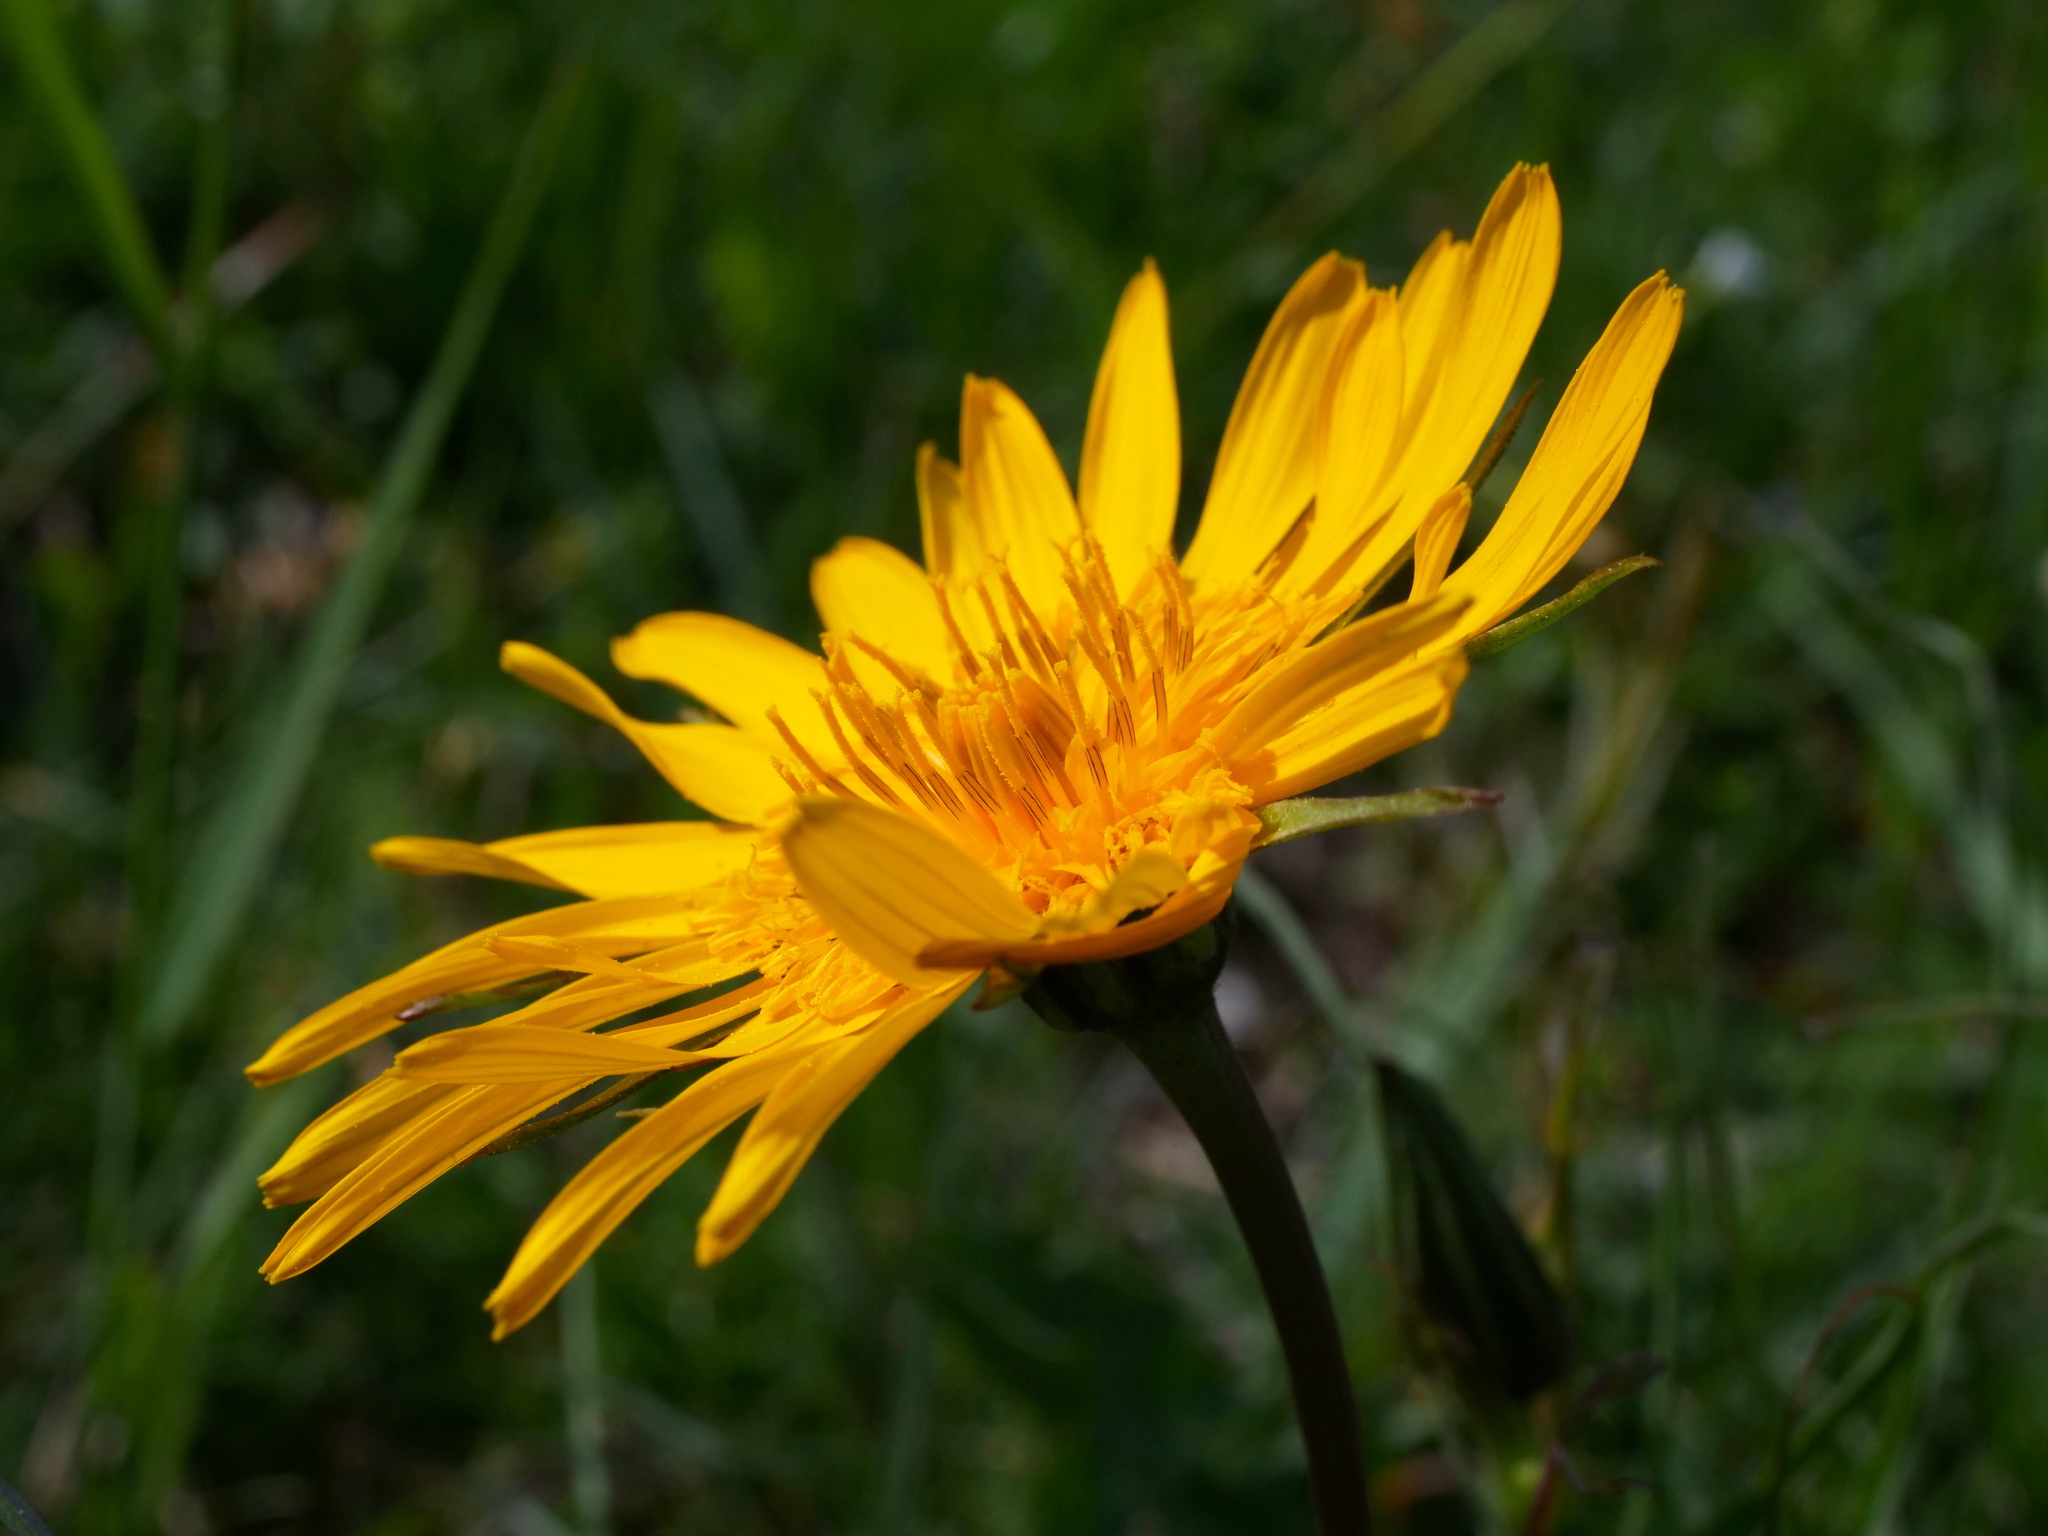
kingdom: Plantae
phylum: Tracheophyta
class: Magnoliopsida
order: Asterales
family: Asteraceae
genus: Tragopogon
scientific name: Tragopogon orientalis
